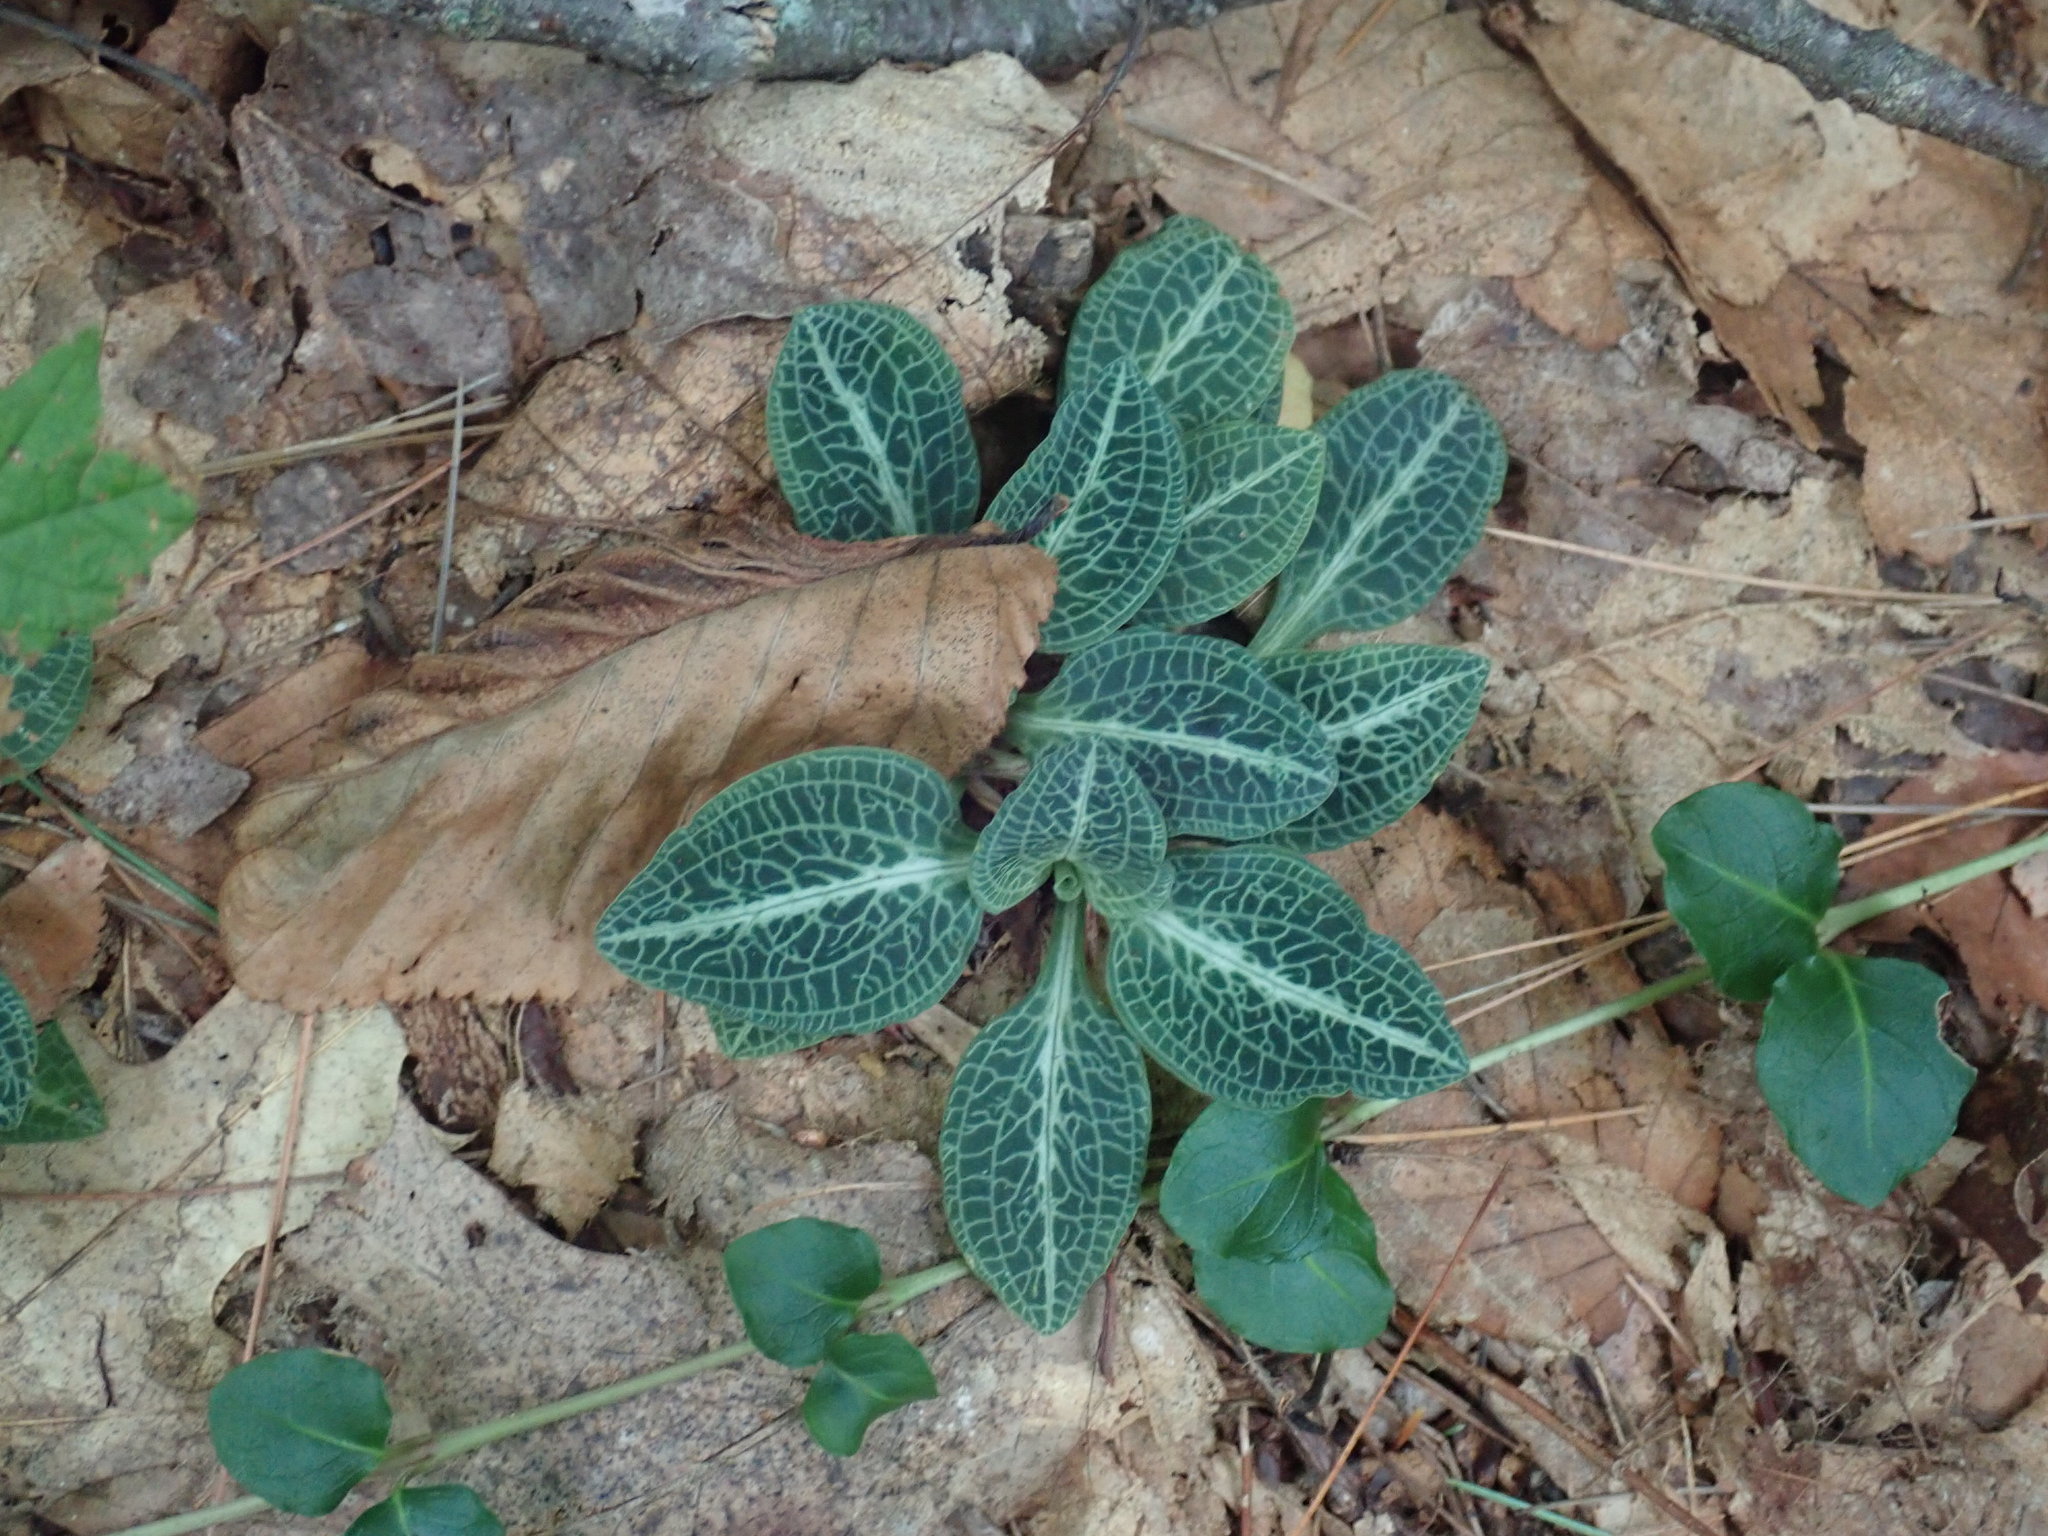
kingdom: Plantae
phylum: Tracheophyta
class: Liliopsida
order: Asparagales
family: Orchidaceae
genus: Goodyera
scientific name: Goodyera pubescens
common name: Downy rattlesnake-plantain
